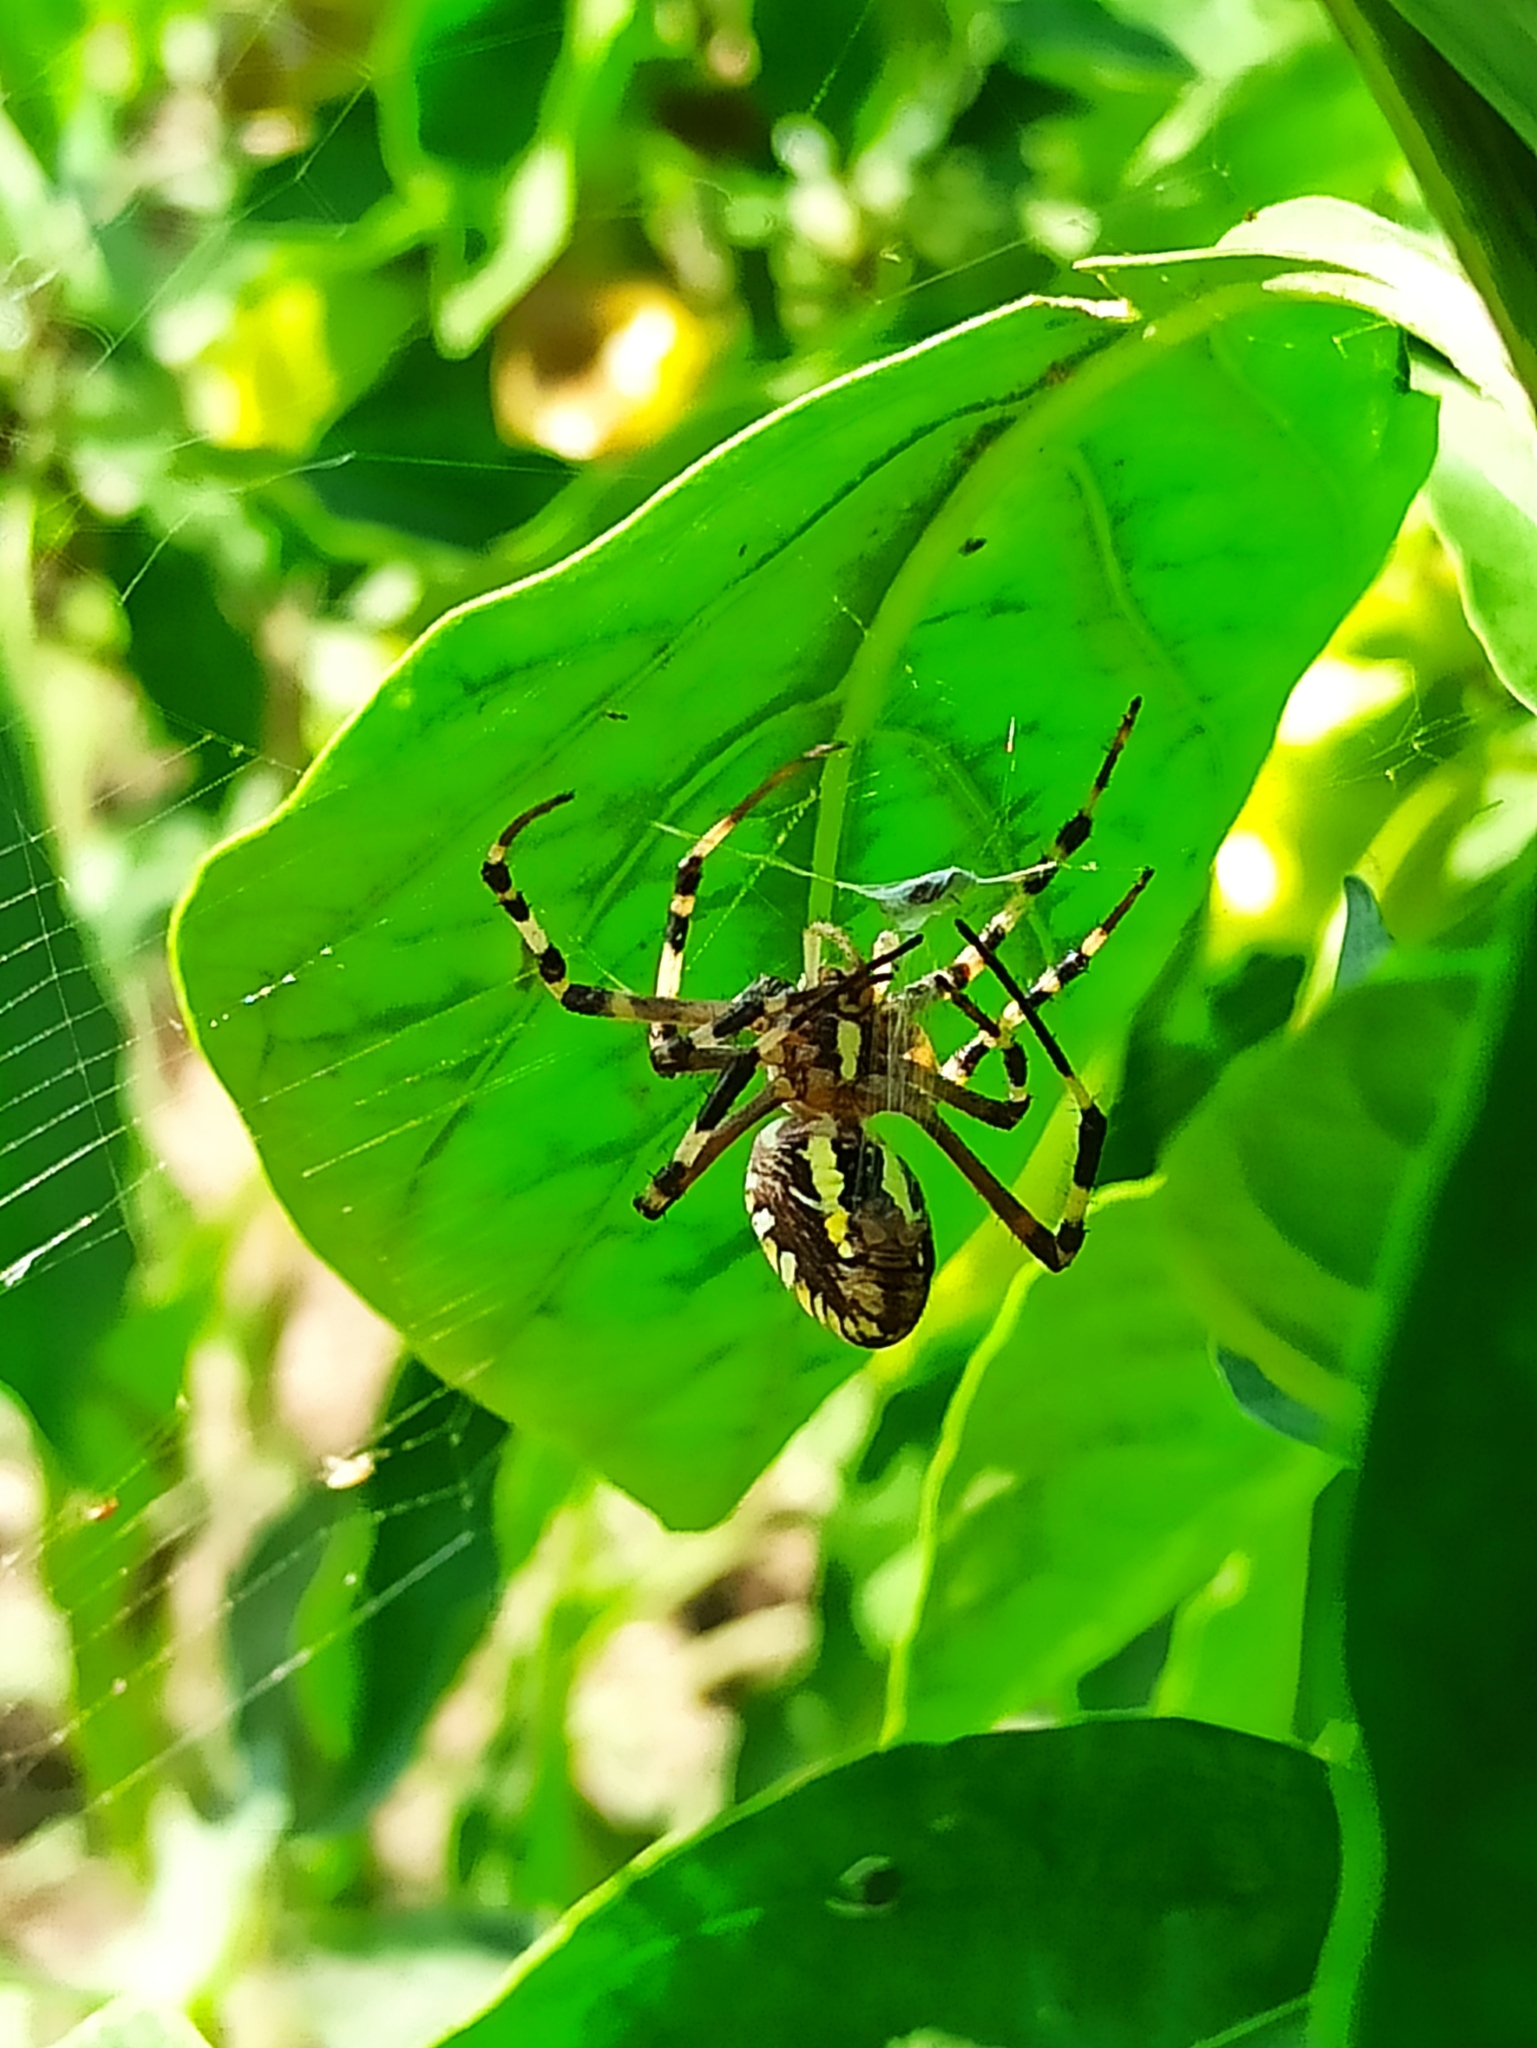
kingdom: Animalia
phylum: Arthropoda
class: Arachnida
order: Araneae
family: Araneidae
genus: Argiope
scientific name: Argiope bruennichi
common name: Wasp spider
